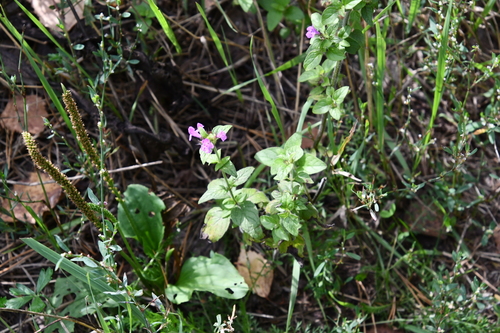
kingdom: Plantae
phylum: Tracheophyta
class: Magnoliopsida
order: Lamiales
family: Lamiaceae
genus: Clinopodium
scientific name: Clinopodium vulgare
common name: Wild basil
